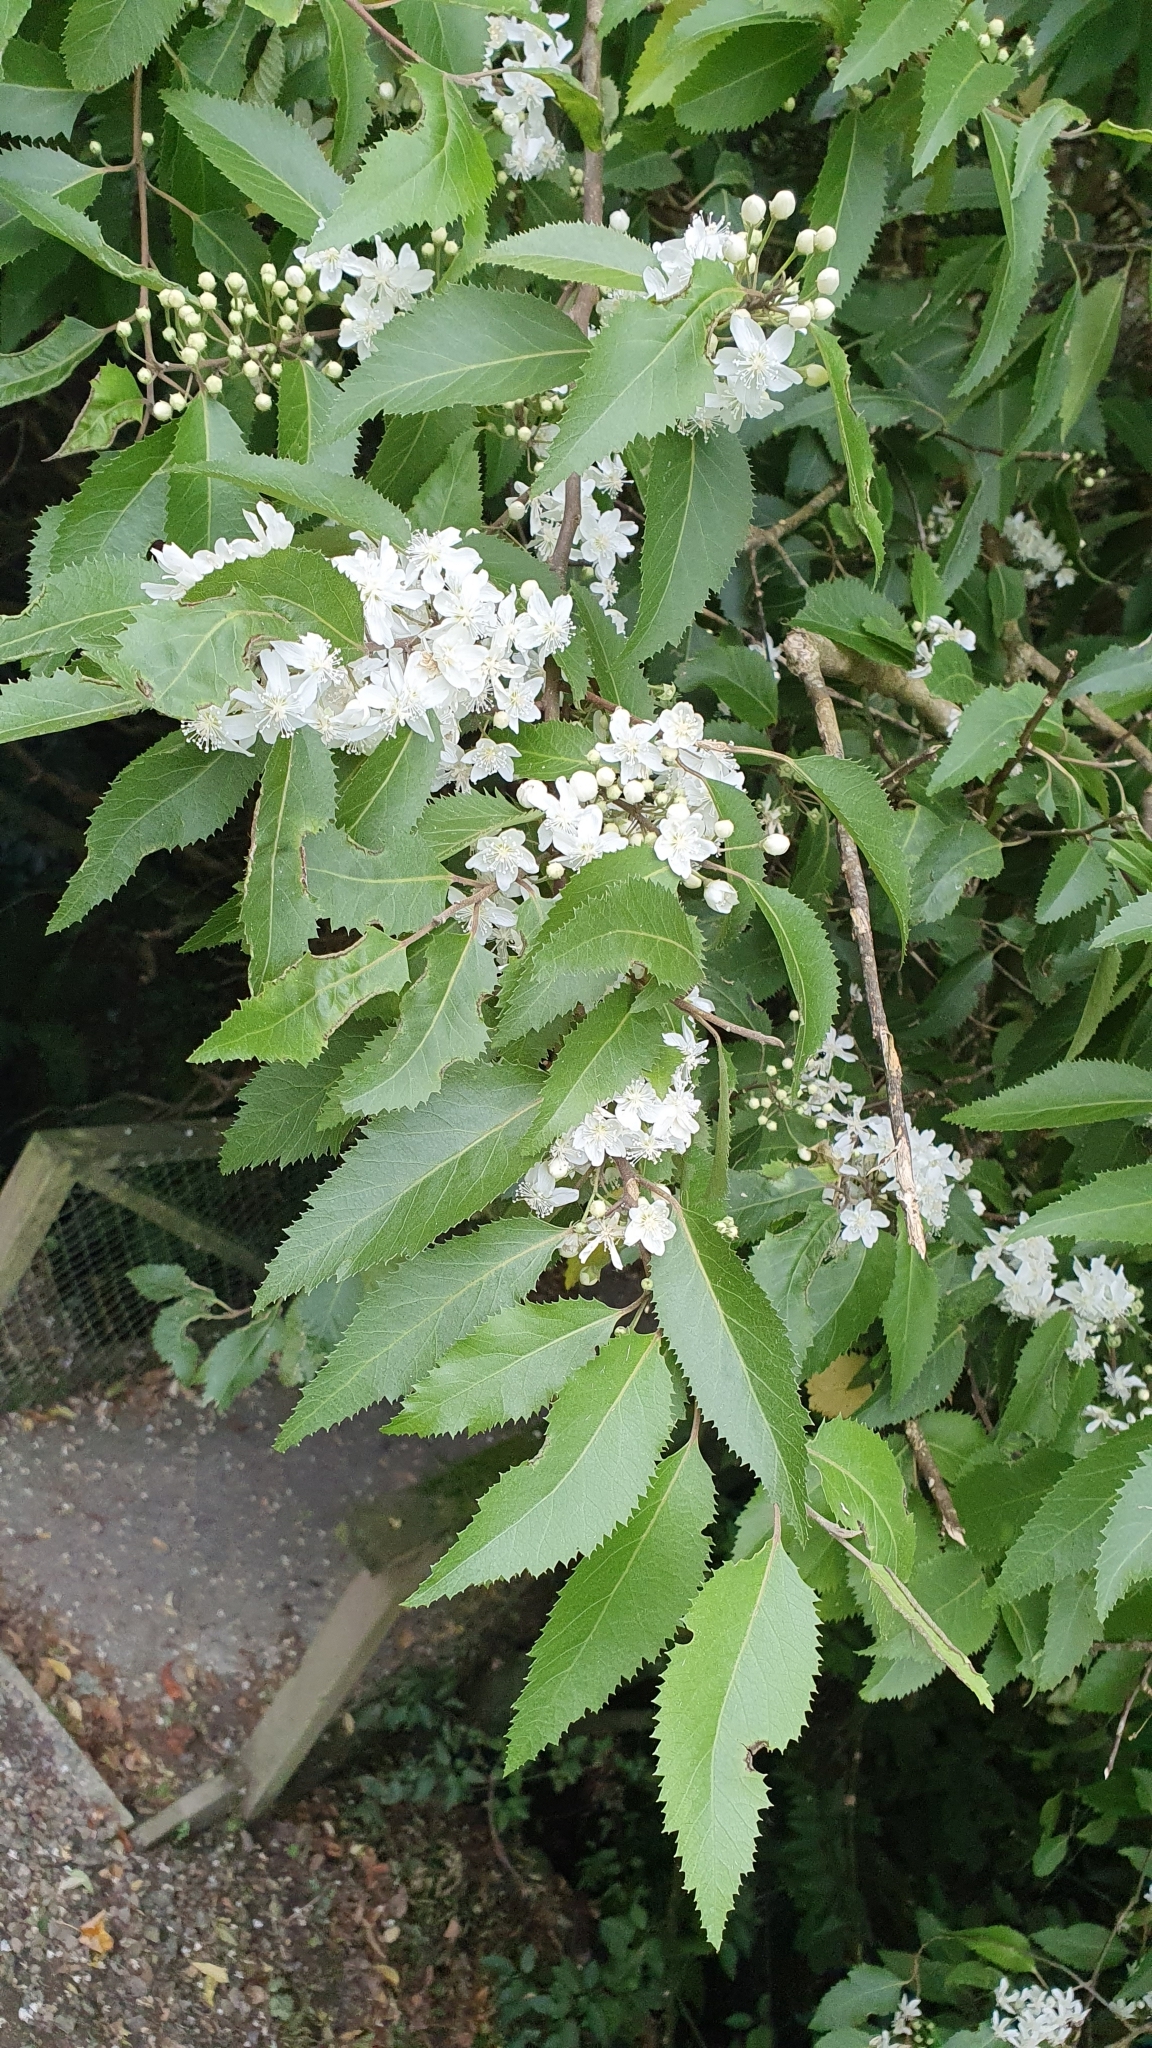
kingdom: Plantae
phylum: Tracheophyta
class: Magnoliopsida
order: Malvales
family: Malvaceae
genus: Hoheria
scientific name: Hoheria sexstylosa
